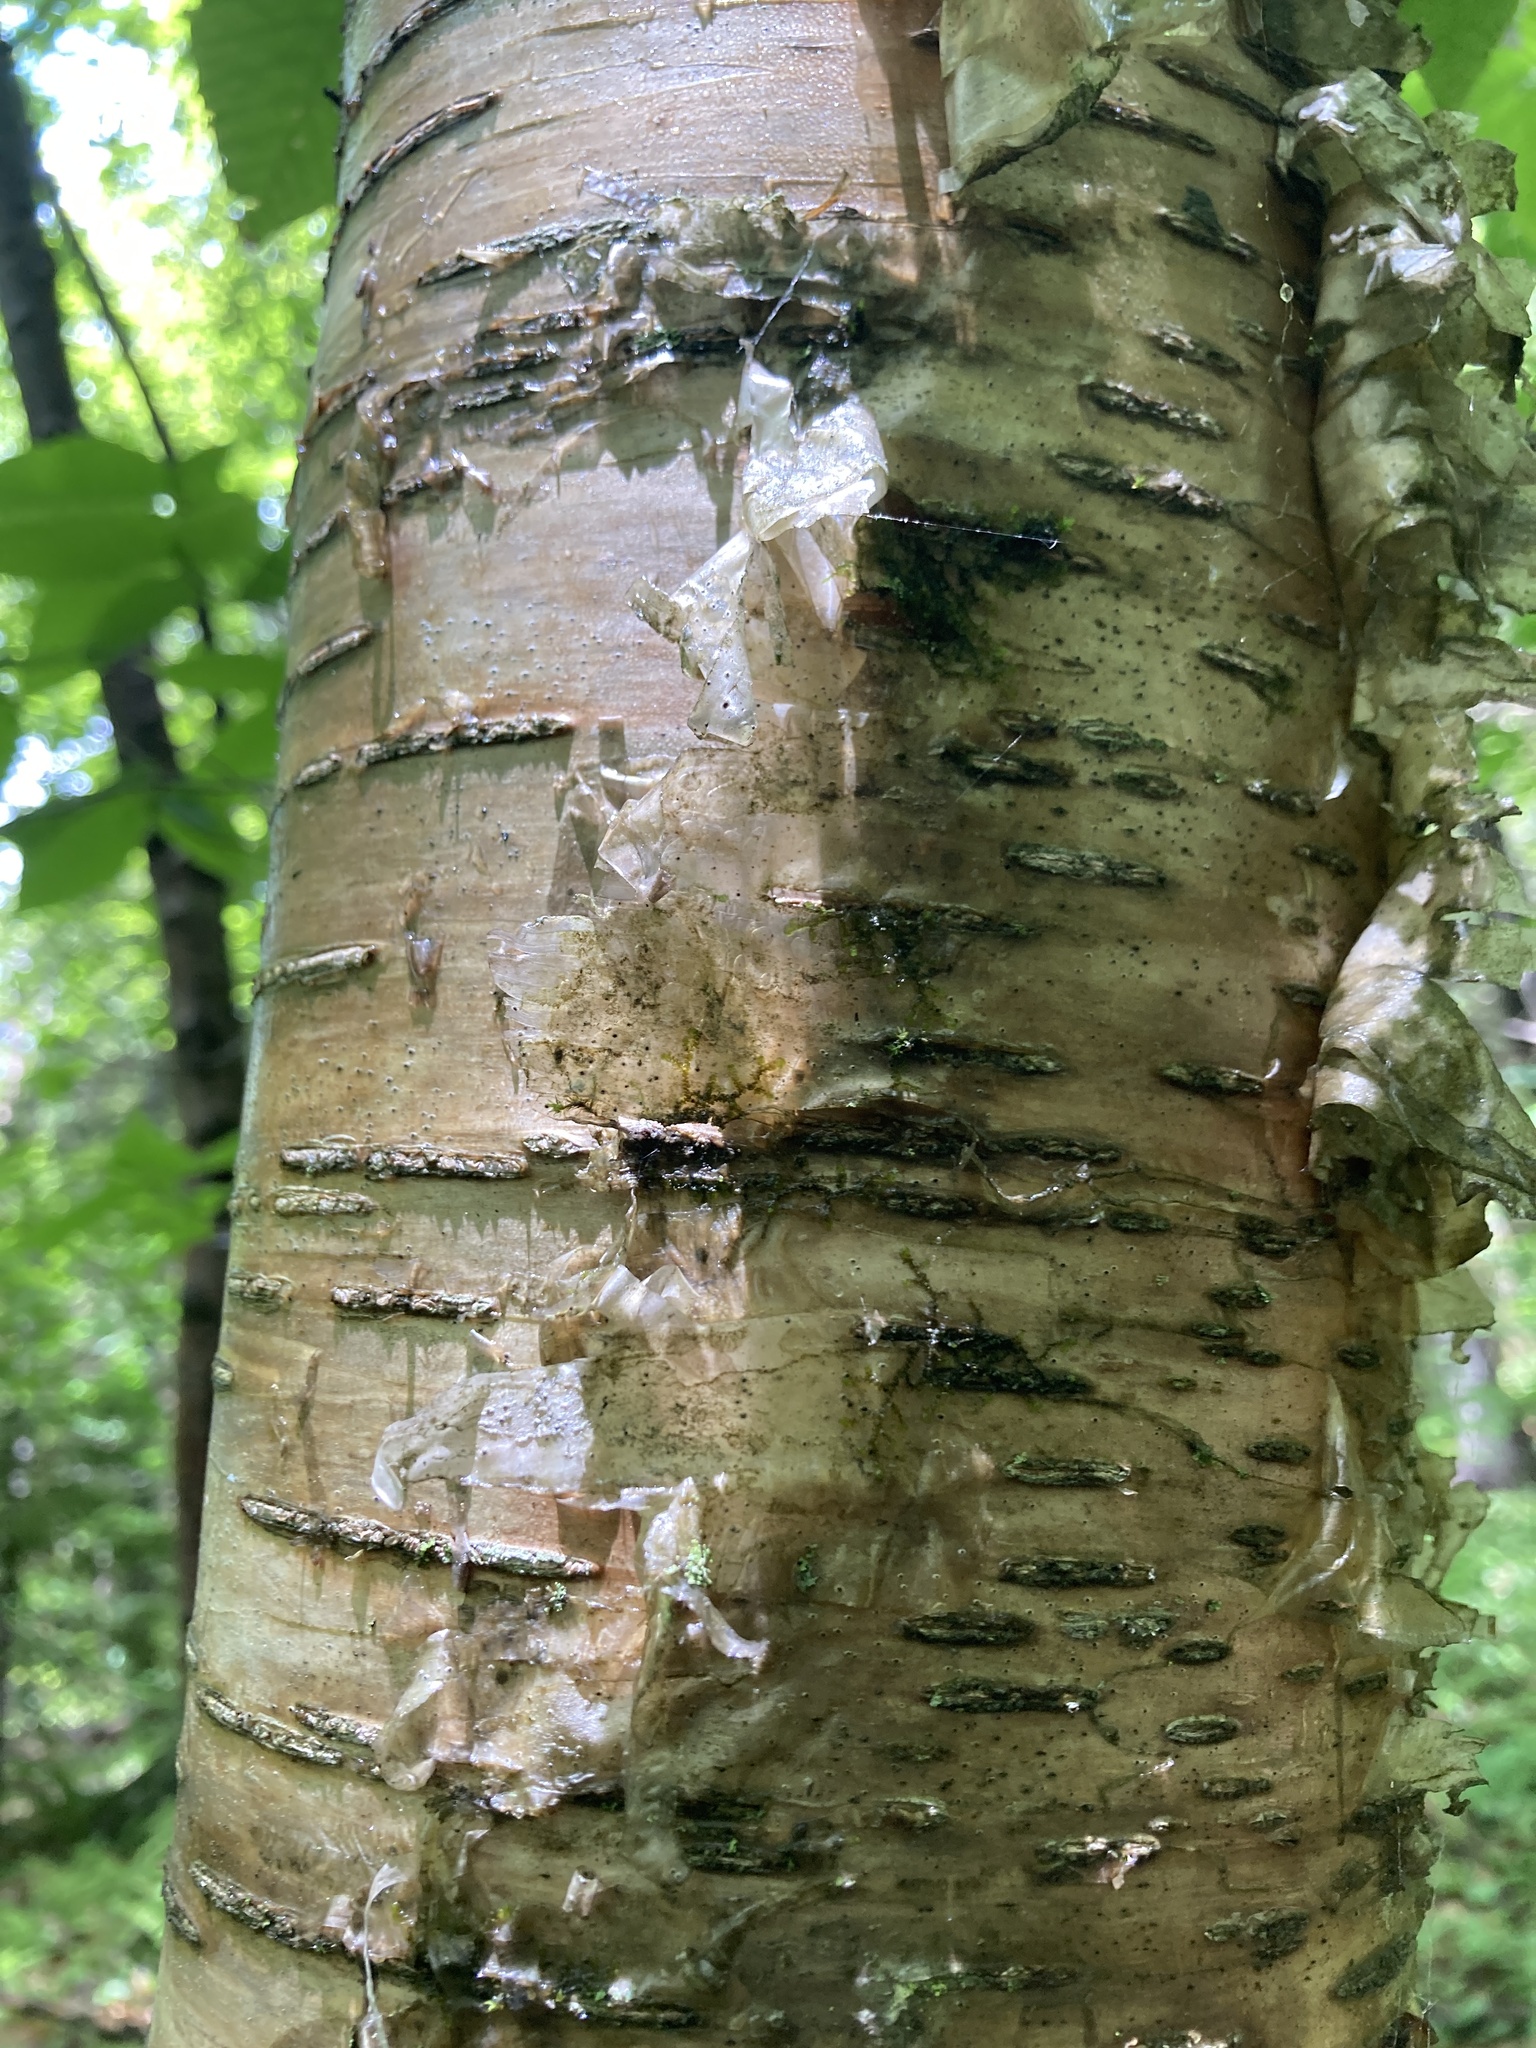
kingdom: Plantae
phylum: Tracheophyta
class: Magnoliopsida
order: Fagales
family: Betulaceae
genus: Betula
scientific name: Betula alleghaniensis
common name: Yellow birch
